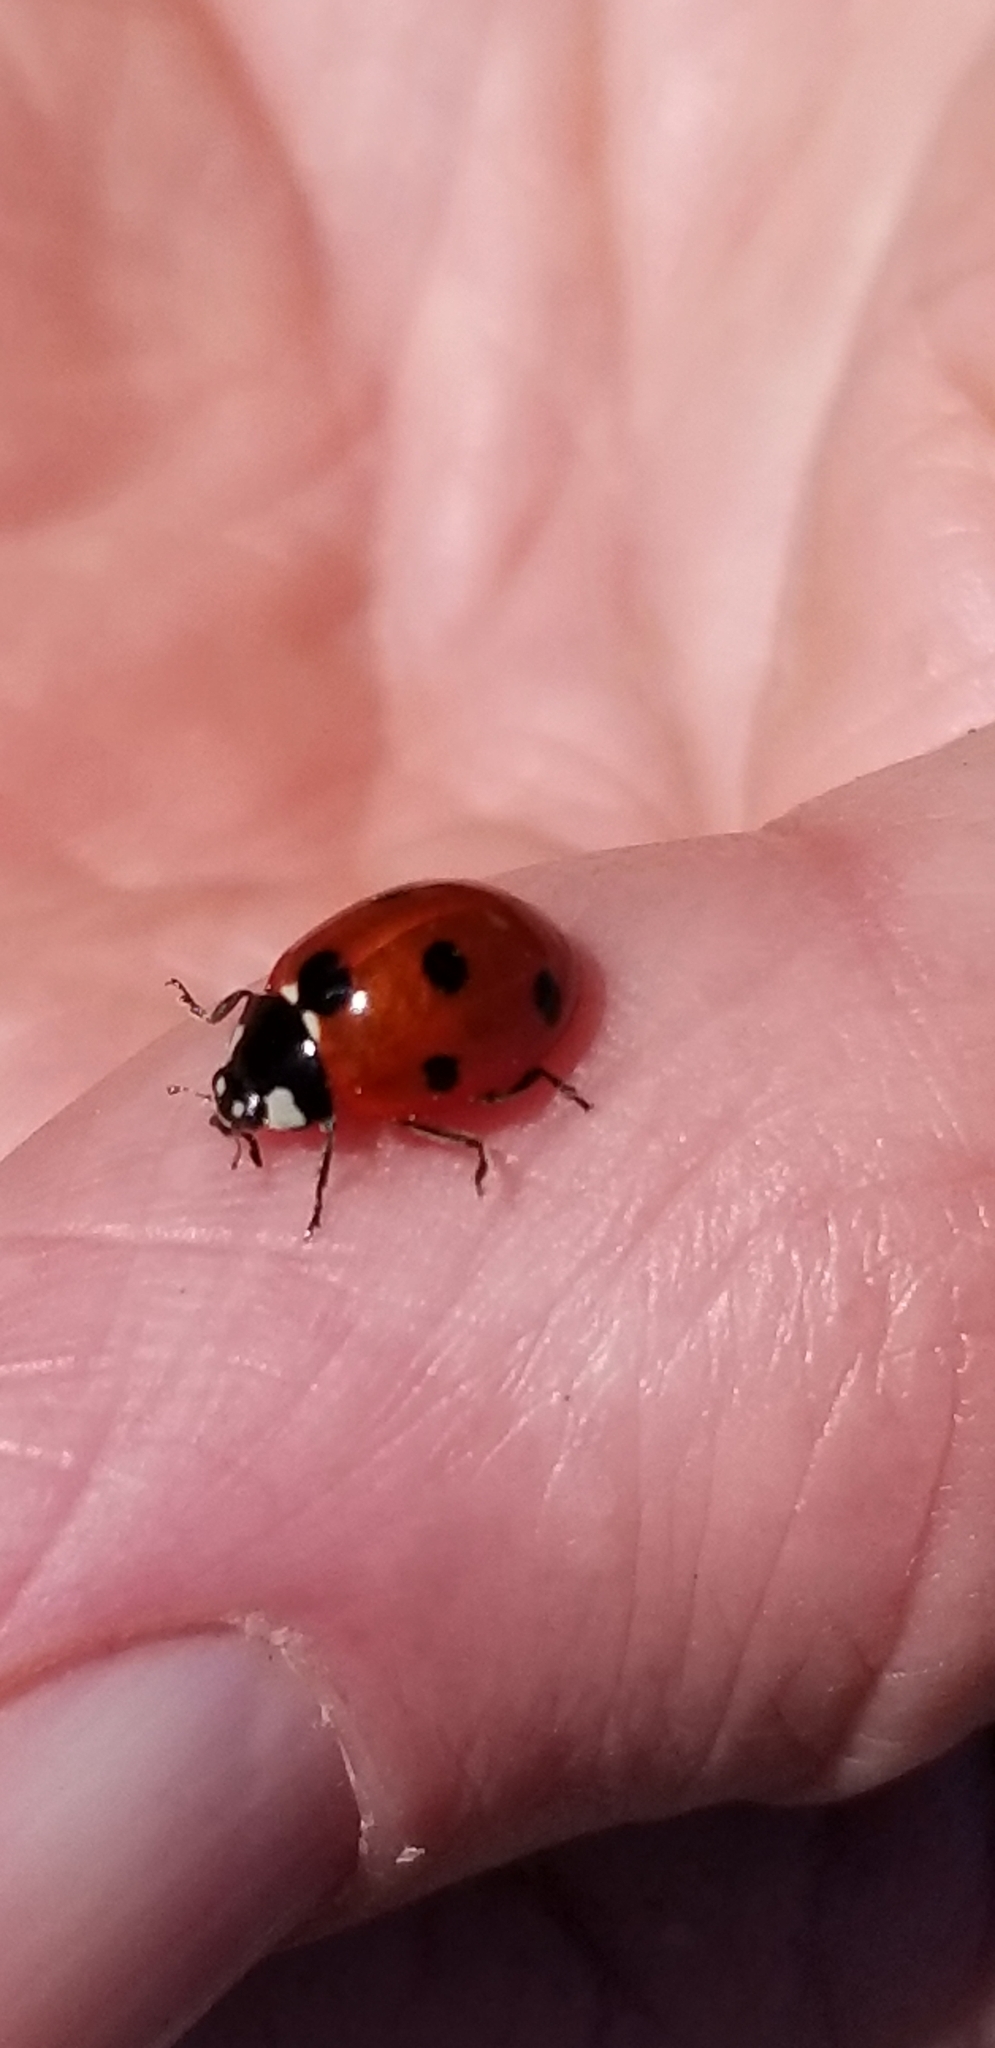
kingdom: Animalia
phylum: Arthropoda
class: Insecta
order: Coleoptera
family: Coccinellidae
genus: Coccinella
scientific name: Coccinella septempunctata
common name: Sevenspotted lady beetle
